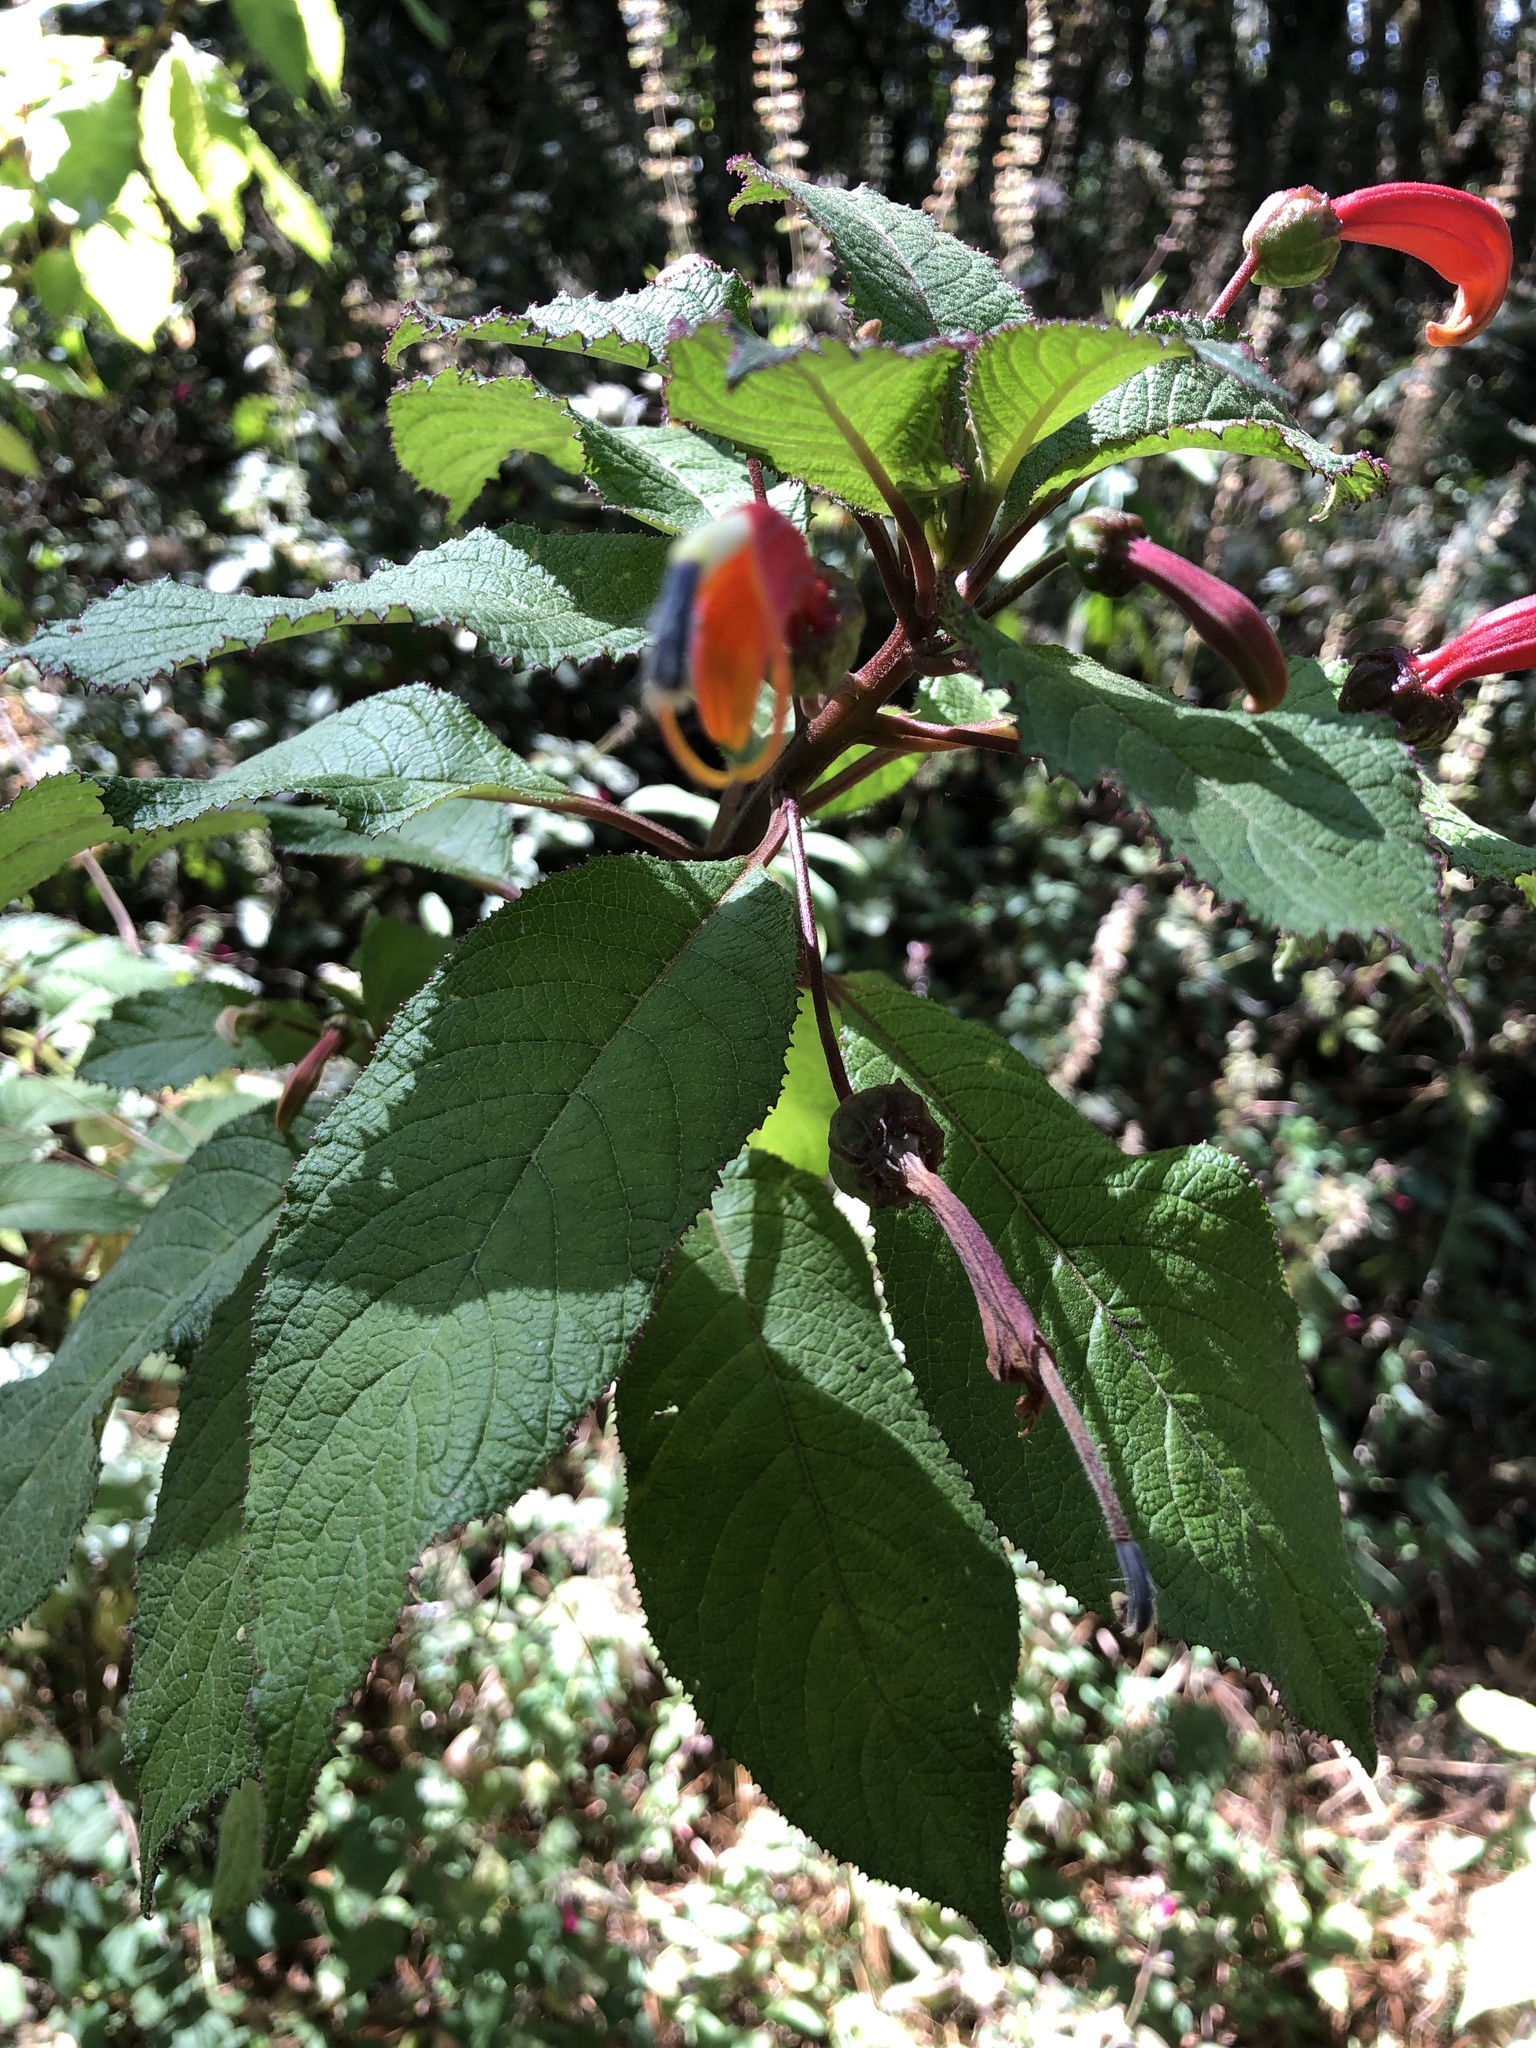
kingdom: Plantae
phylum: Tracheophyta
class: Magnoliopsida
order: Asterales
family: Campanulaceae
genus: Centropogon
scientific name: Centropogon grandidentatus
